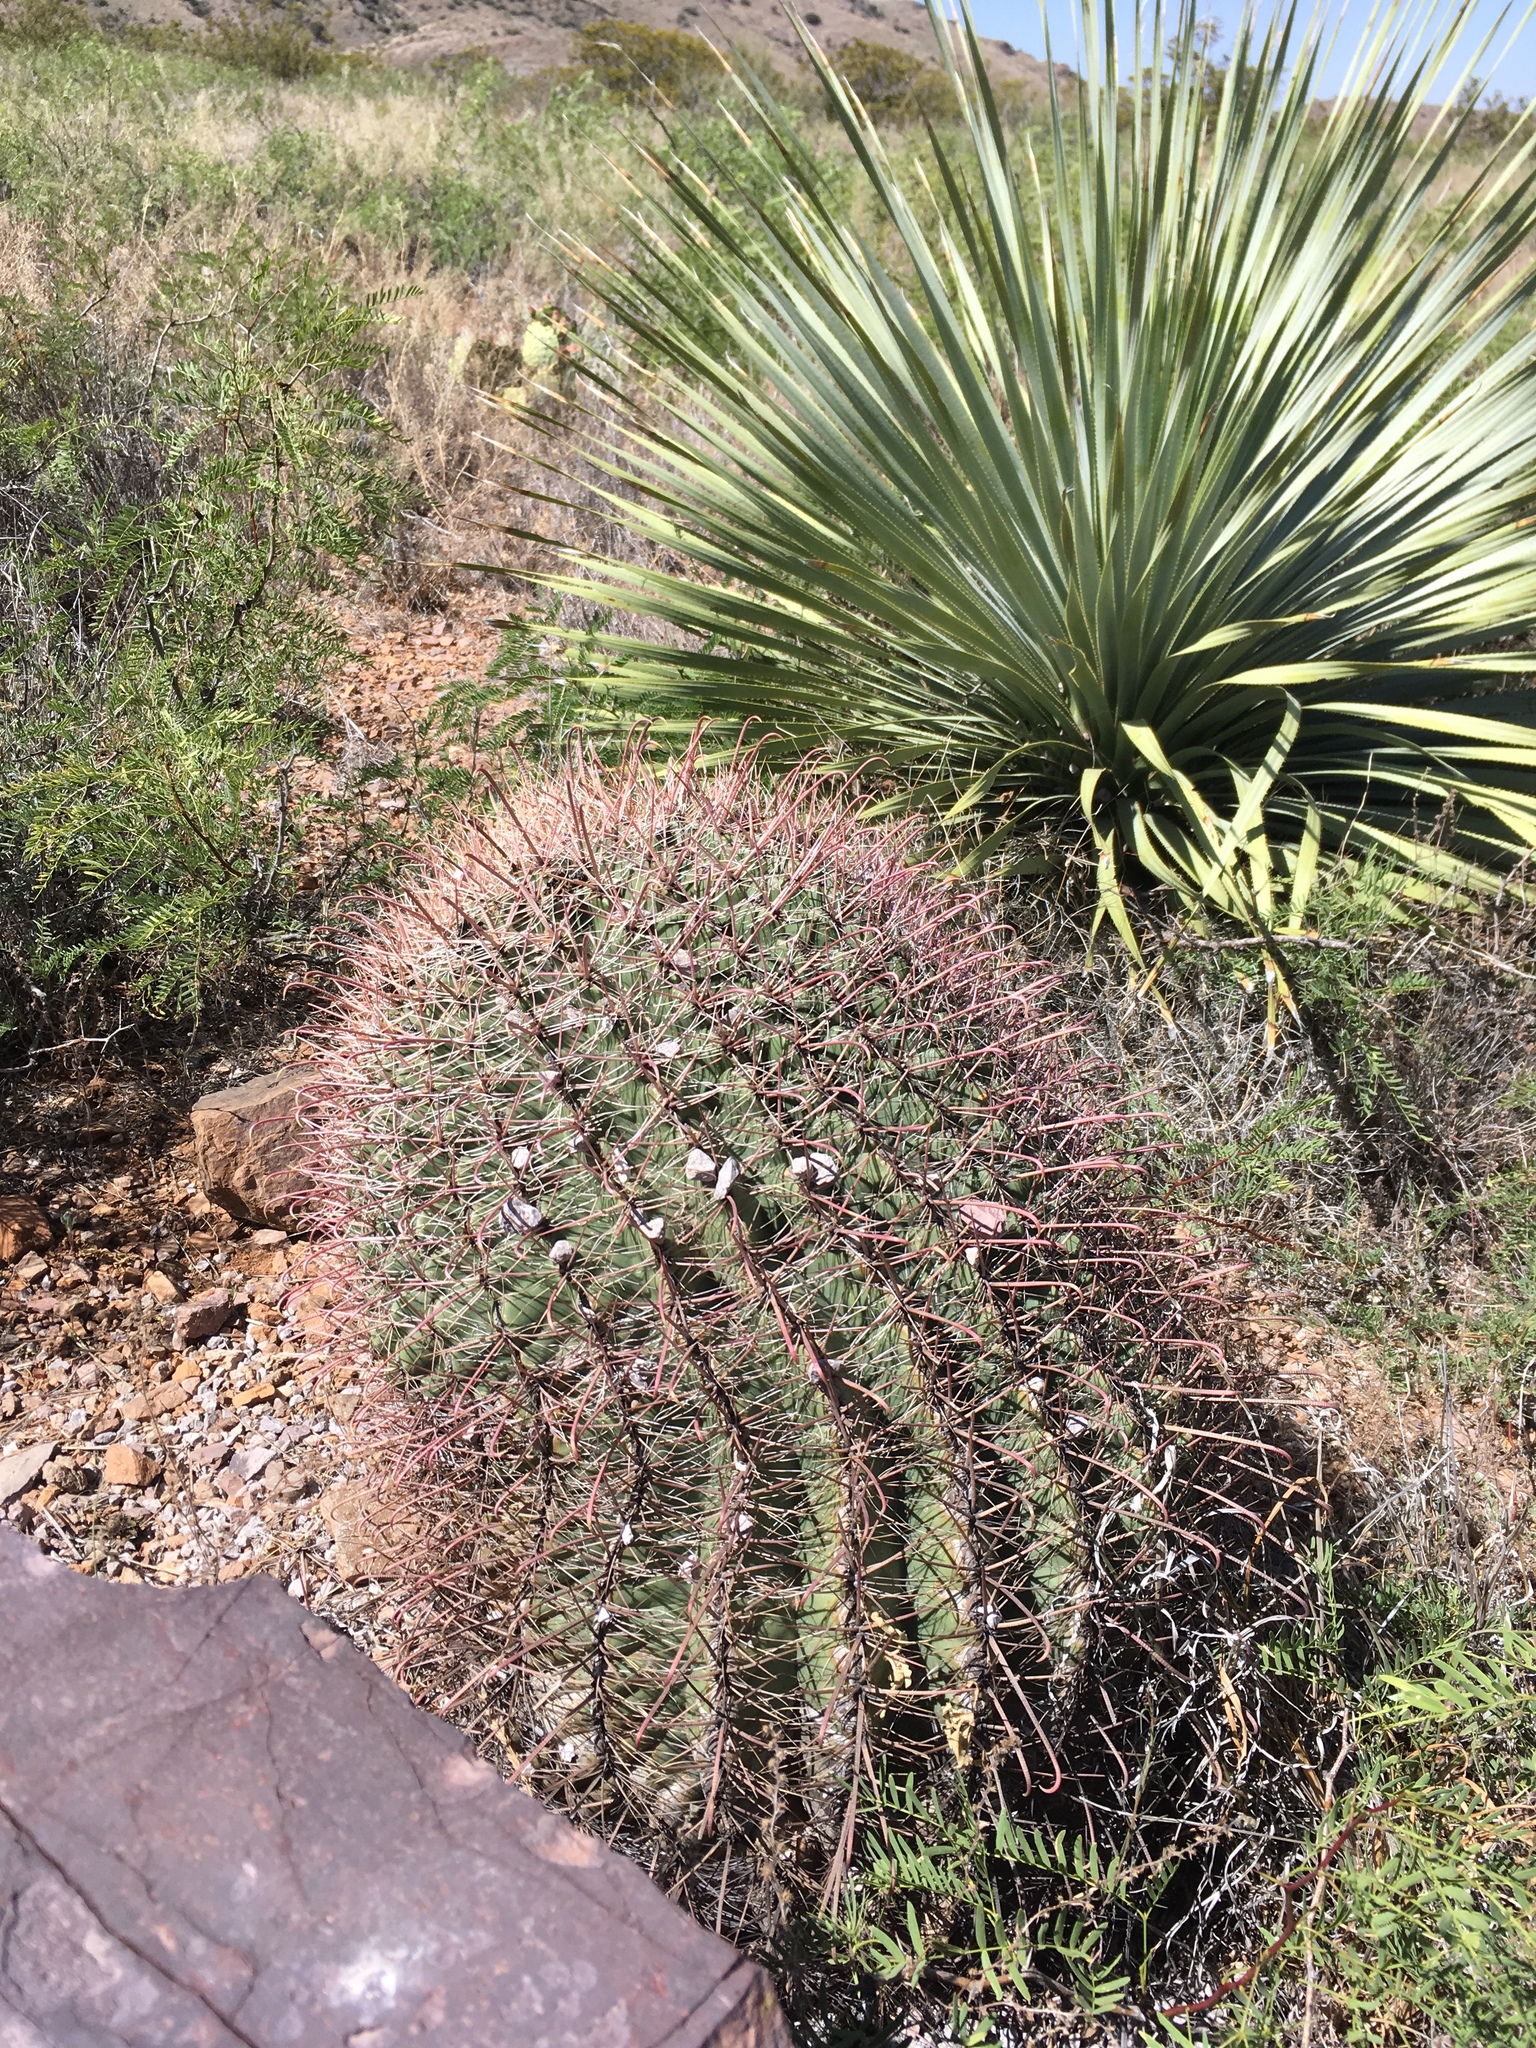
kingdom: Plantae
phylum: Tracheophyta
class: Magnoliopsida
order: Caryophyllales
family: Cactaceae
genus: Ferocactus
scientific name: Ferocactus wislizeni
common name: Candy barrel cactus
